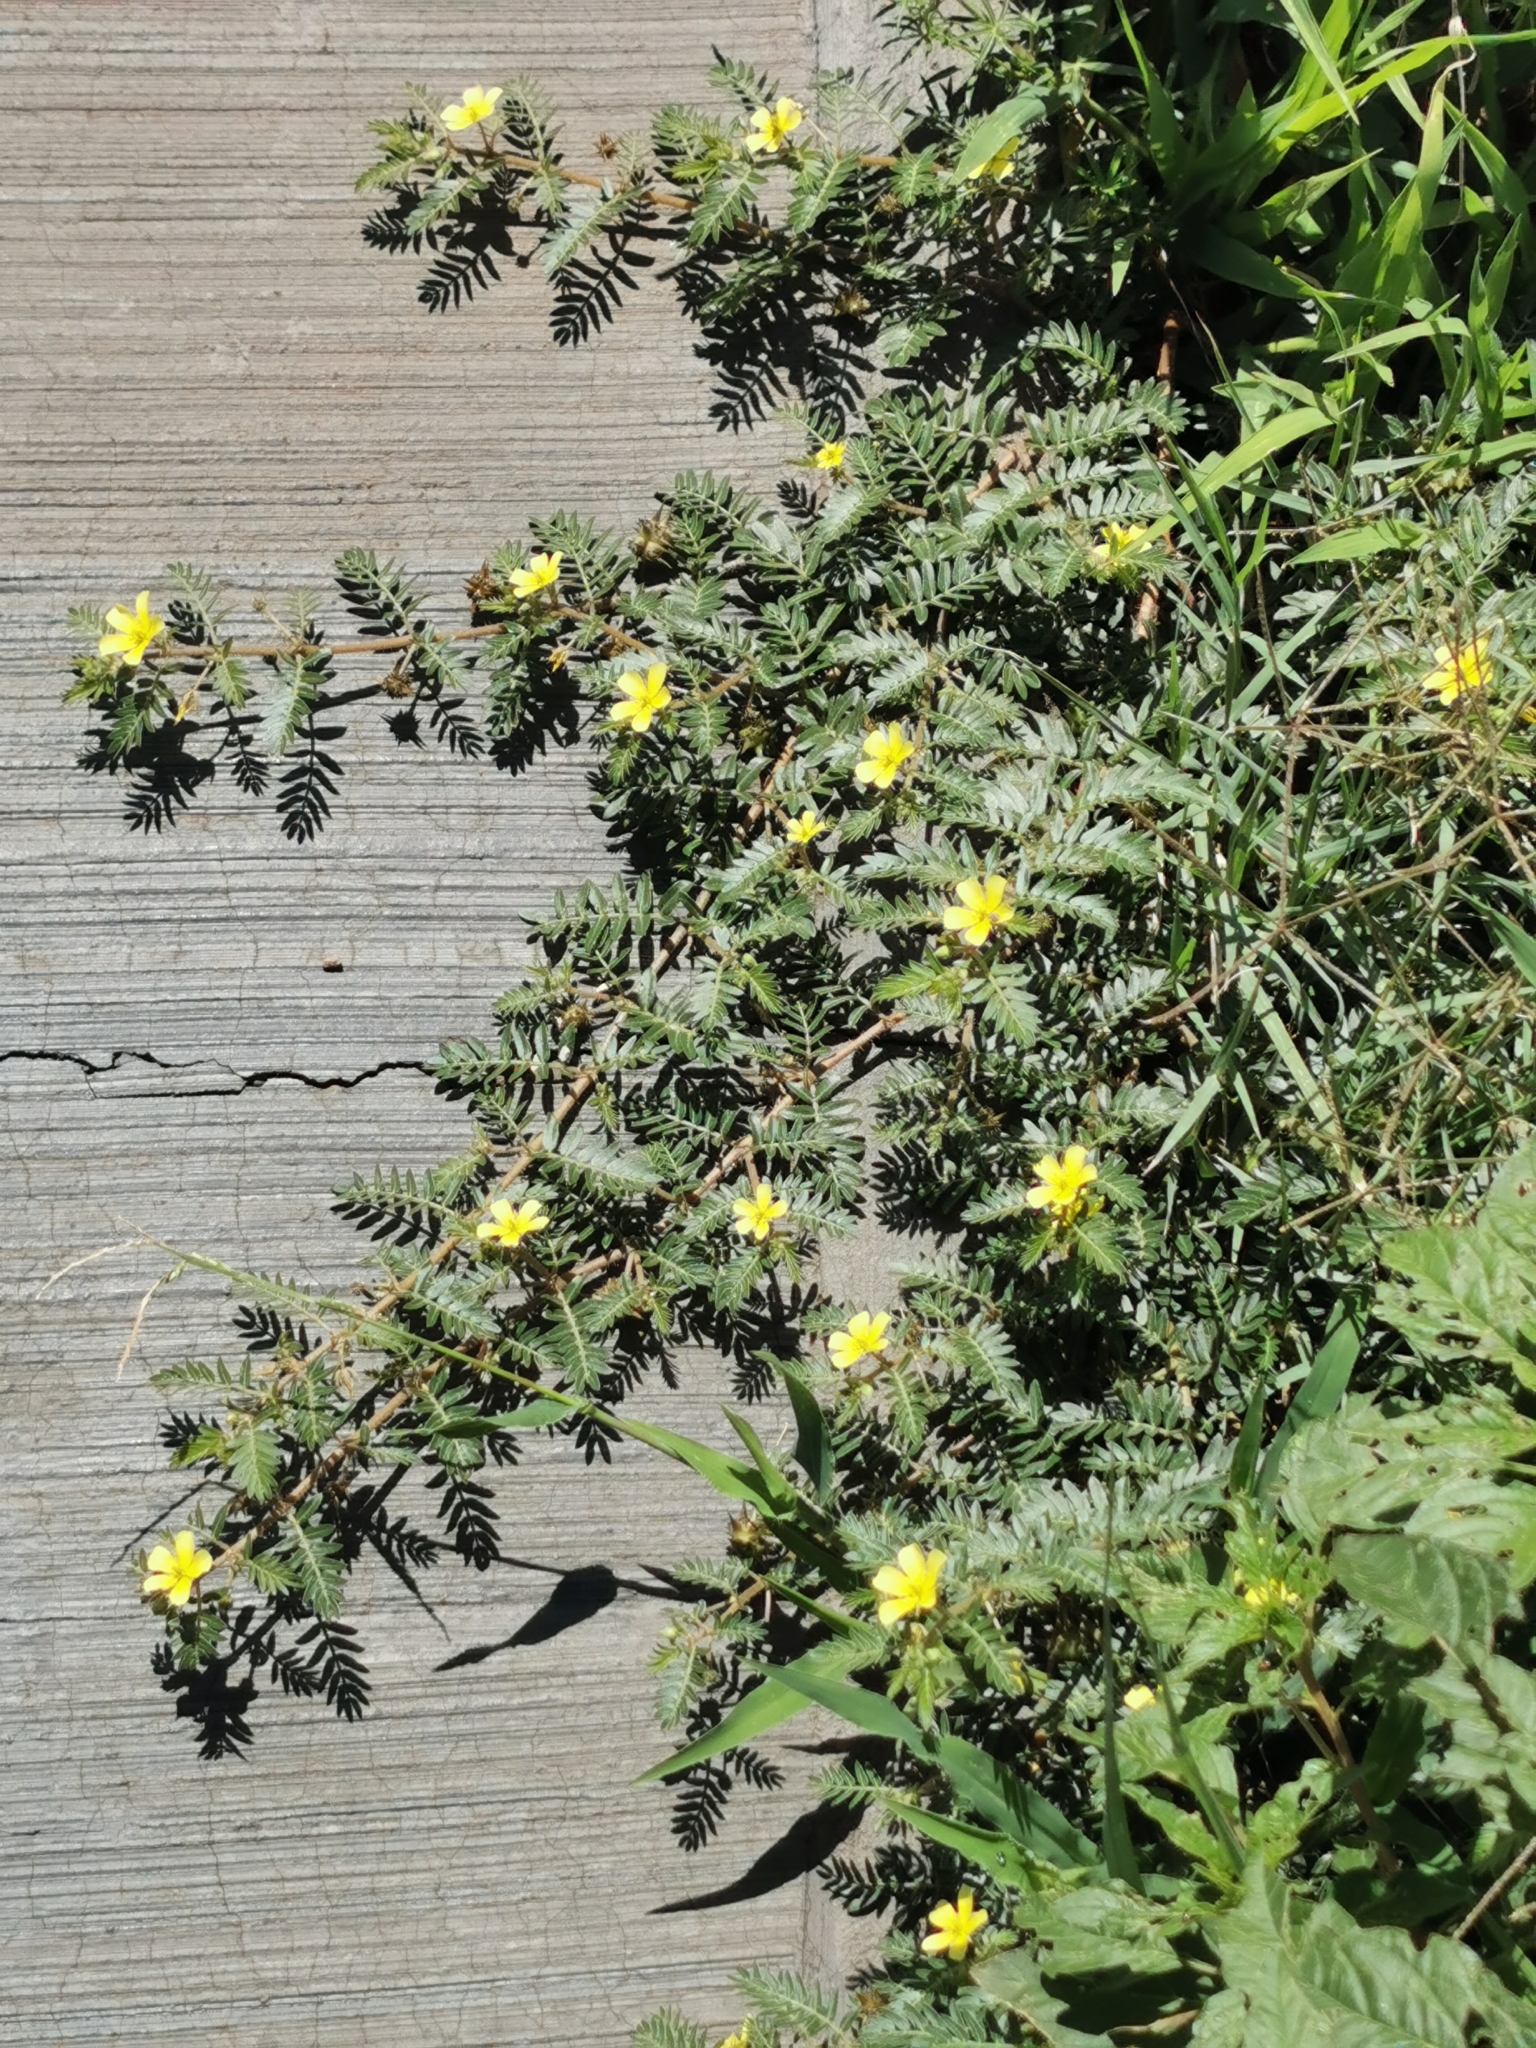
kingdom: Plantae
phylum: Tracheophyta
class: Magnoliopsida
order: Zygophyllales
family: Zygophyllaceae
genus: Tribulus
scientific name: Tribulus terrestris
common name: Puncturevine
